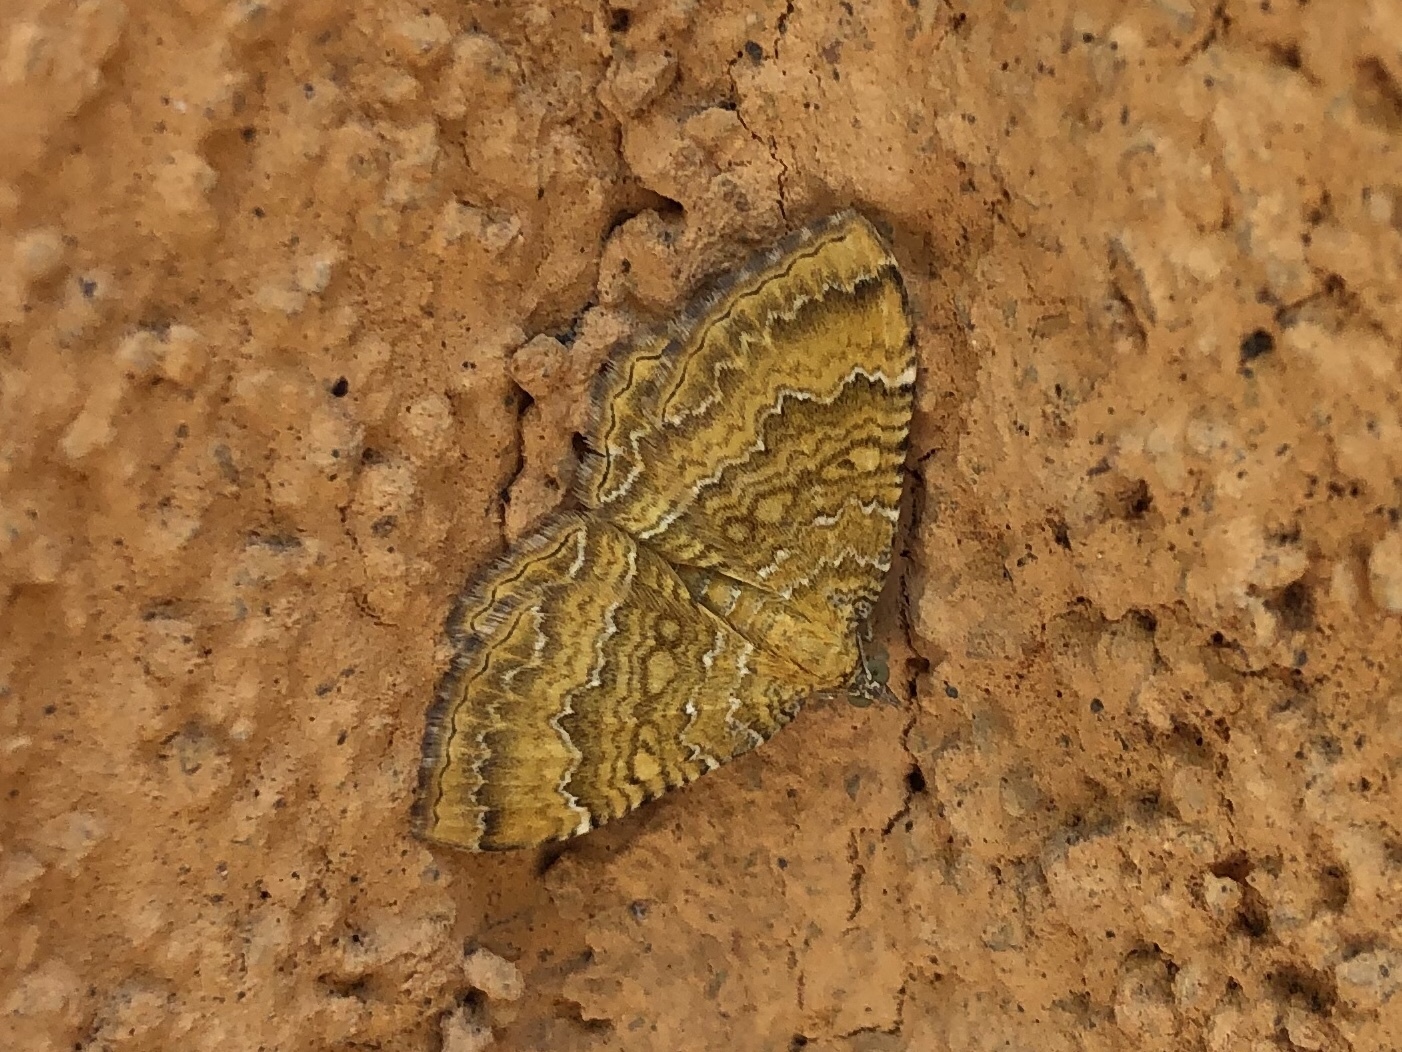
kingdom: Animalia
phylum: Arthropoda
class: Insecta
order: Lepidoptera
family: Geometridae
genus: Camptogramma
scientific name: Camptogramma bilineata
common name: Yellow shell
